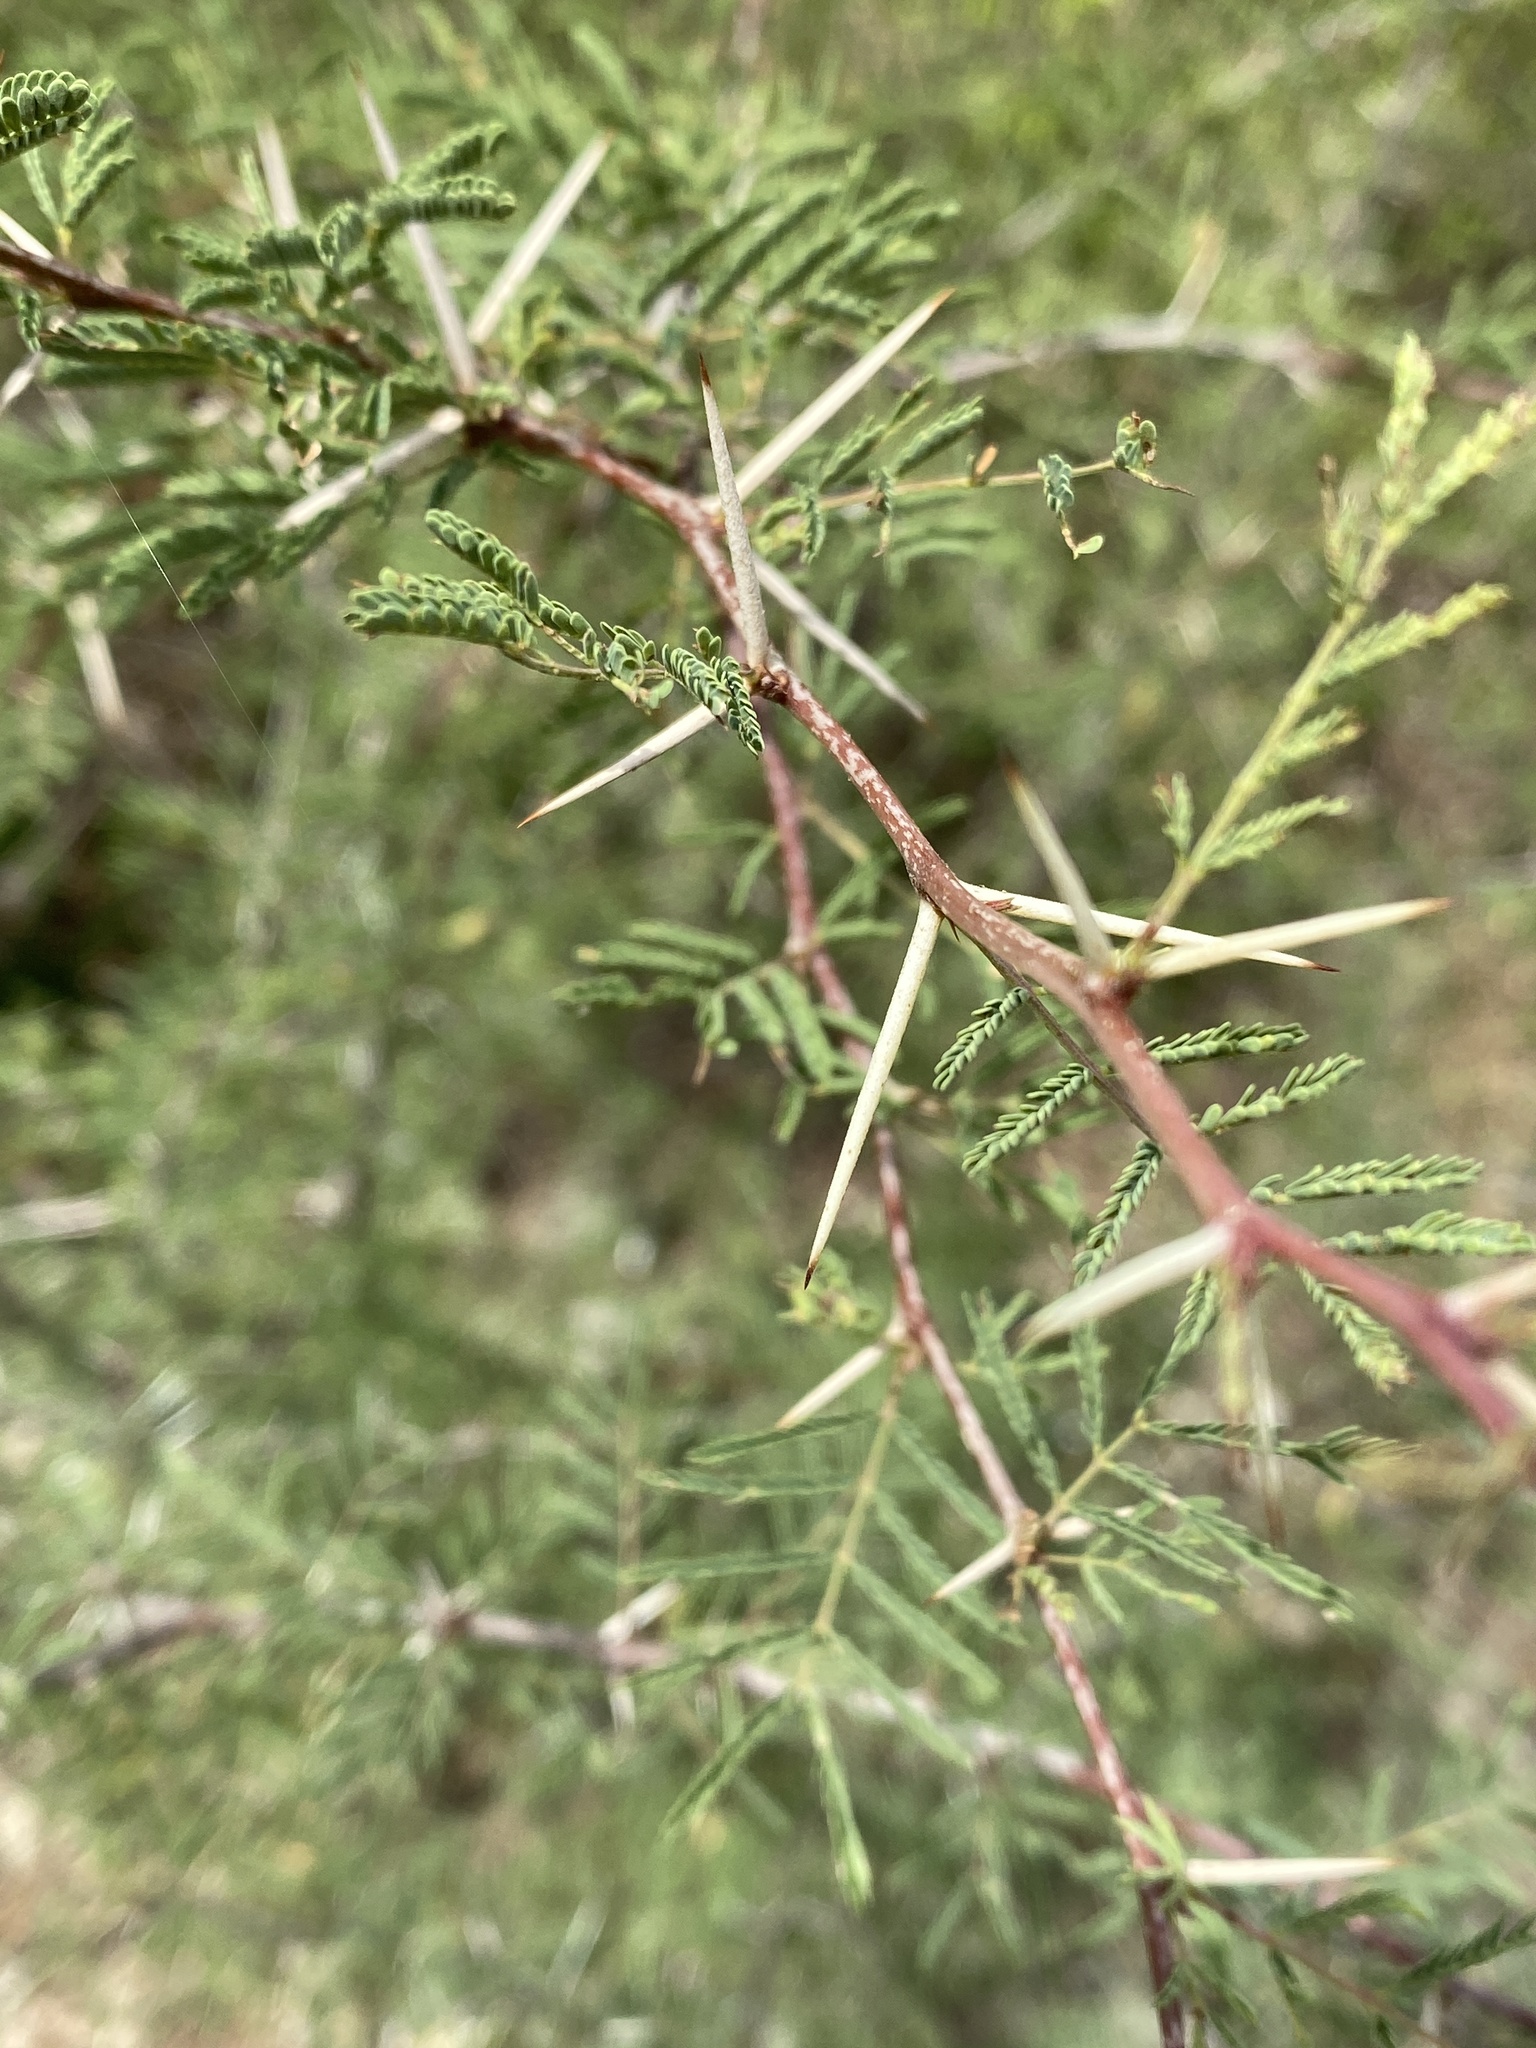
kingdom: Plantae
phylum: Tracheophyta
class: Magnoliopsida
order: Fabales
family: Fabaceae
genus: Vachellia
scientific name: Vachellia farnesiana
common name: Sweet acacia
